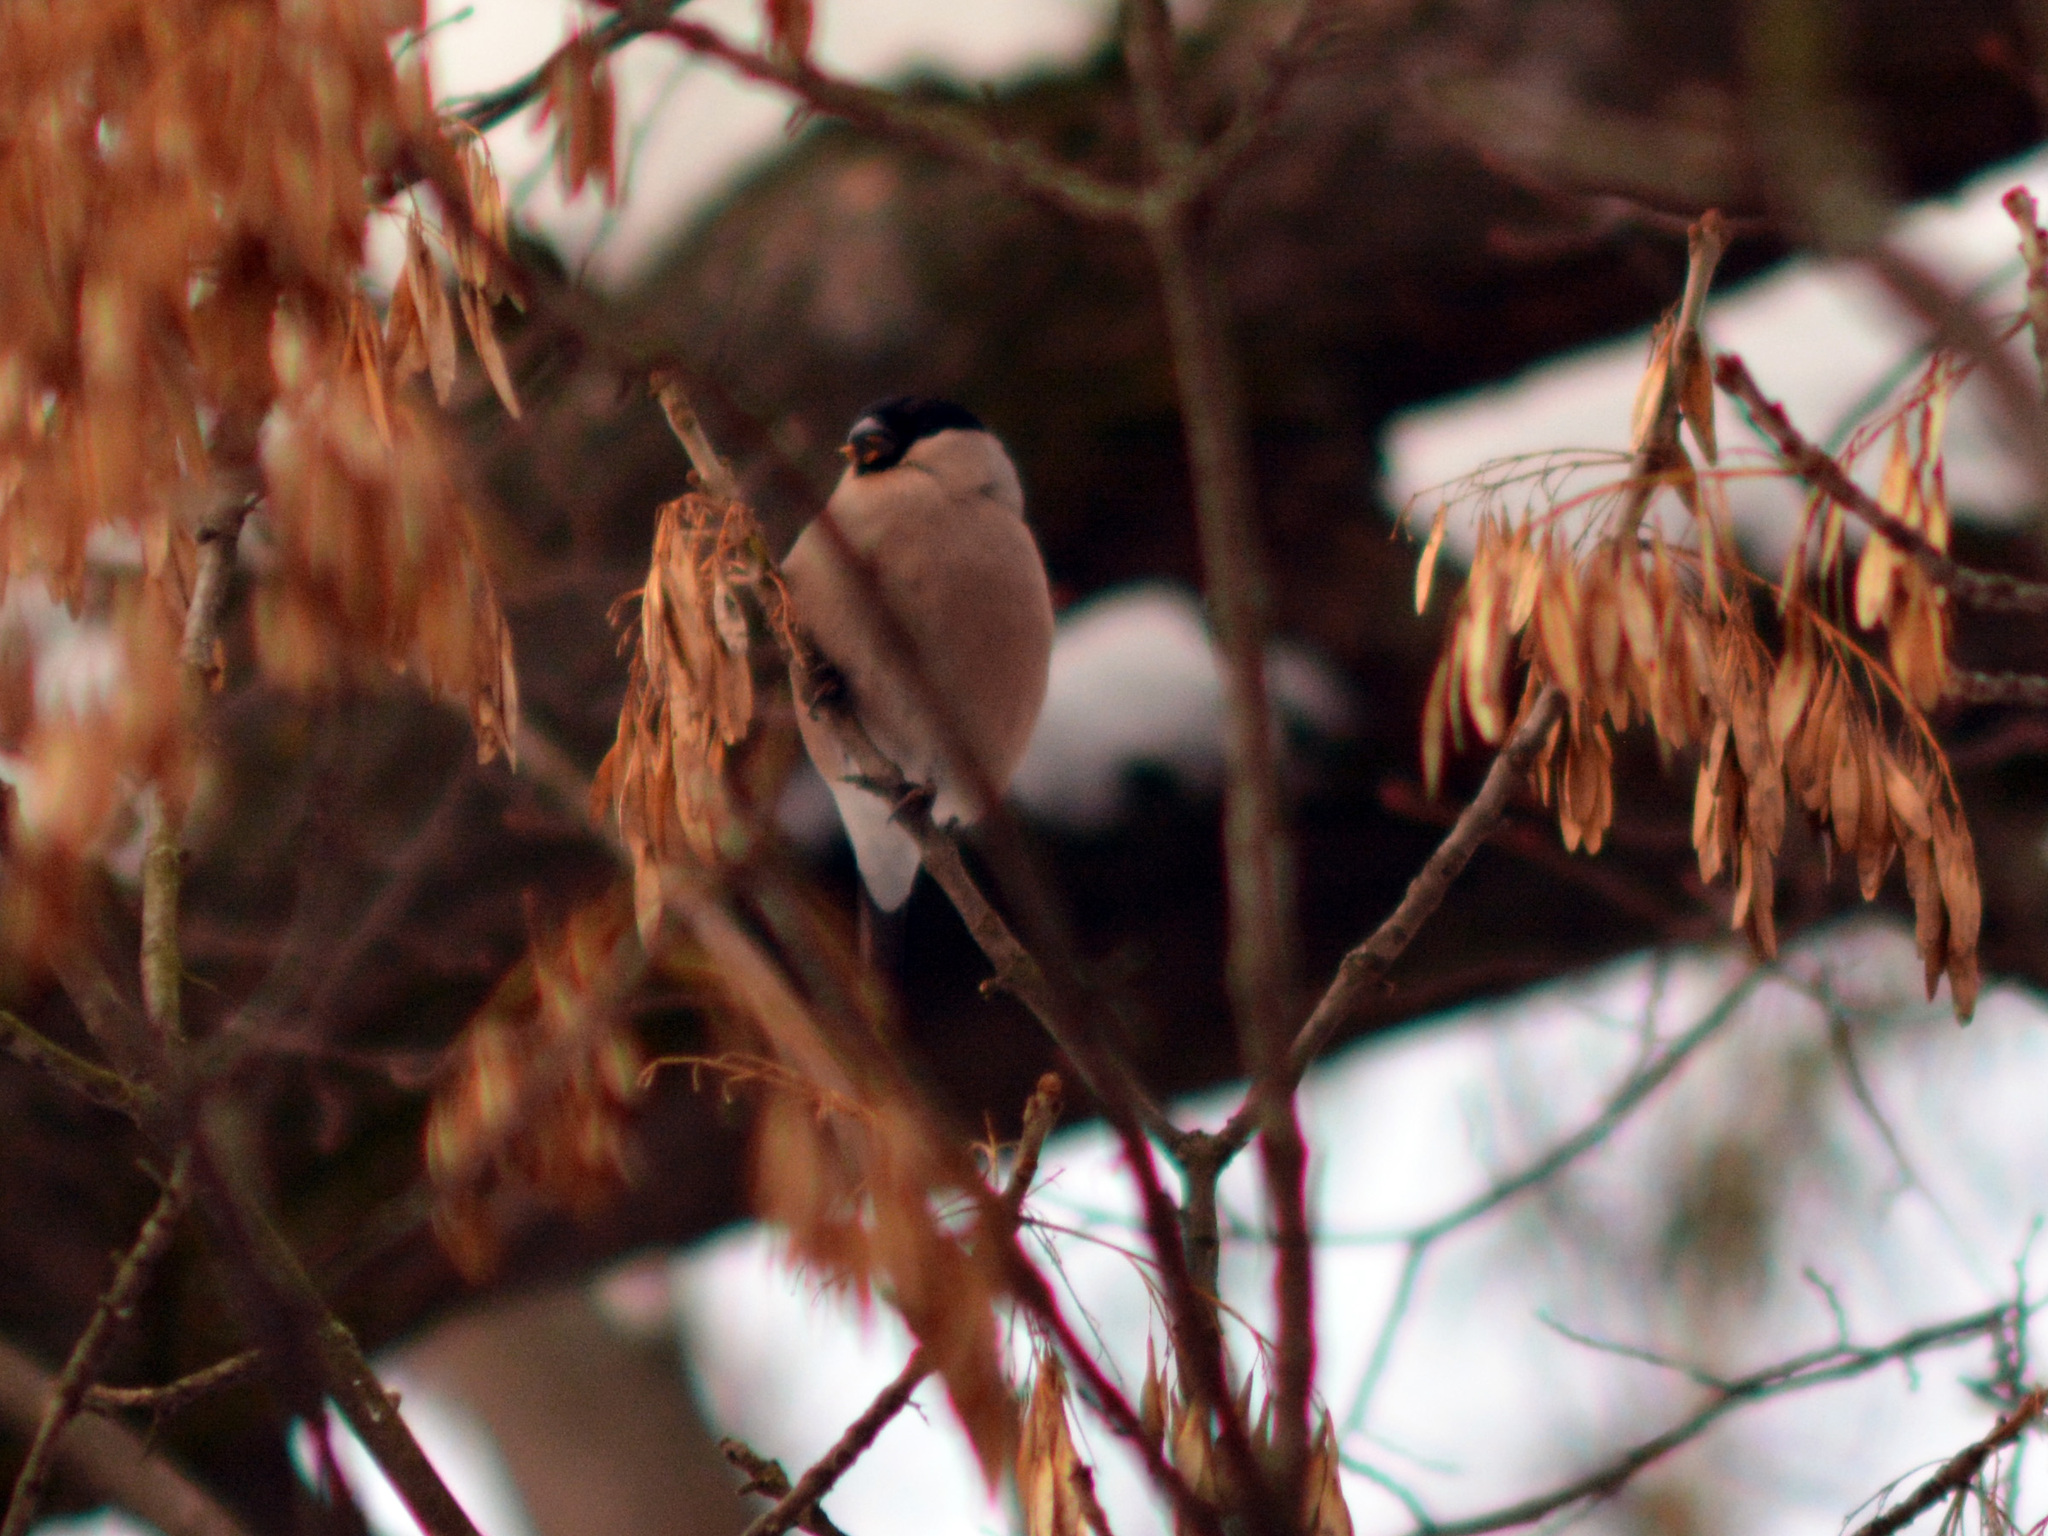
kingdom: Animalia
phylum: Chordata
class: Aves
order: Passeriformes
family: Fringillidae
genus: Pyrrhula
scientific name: Pyrrhula pyrrhula
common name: Eurasian bullfinch
